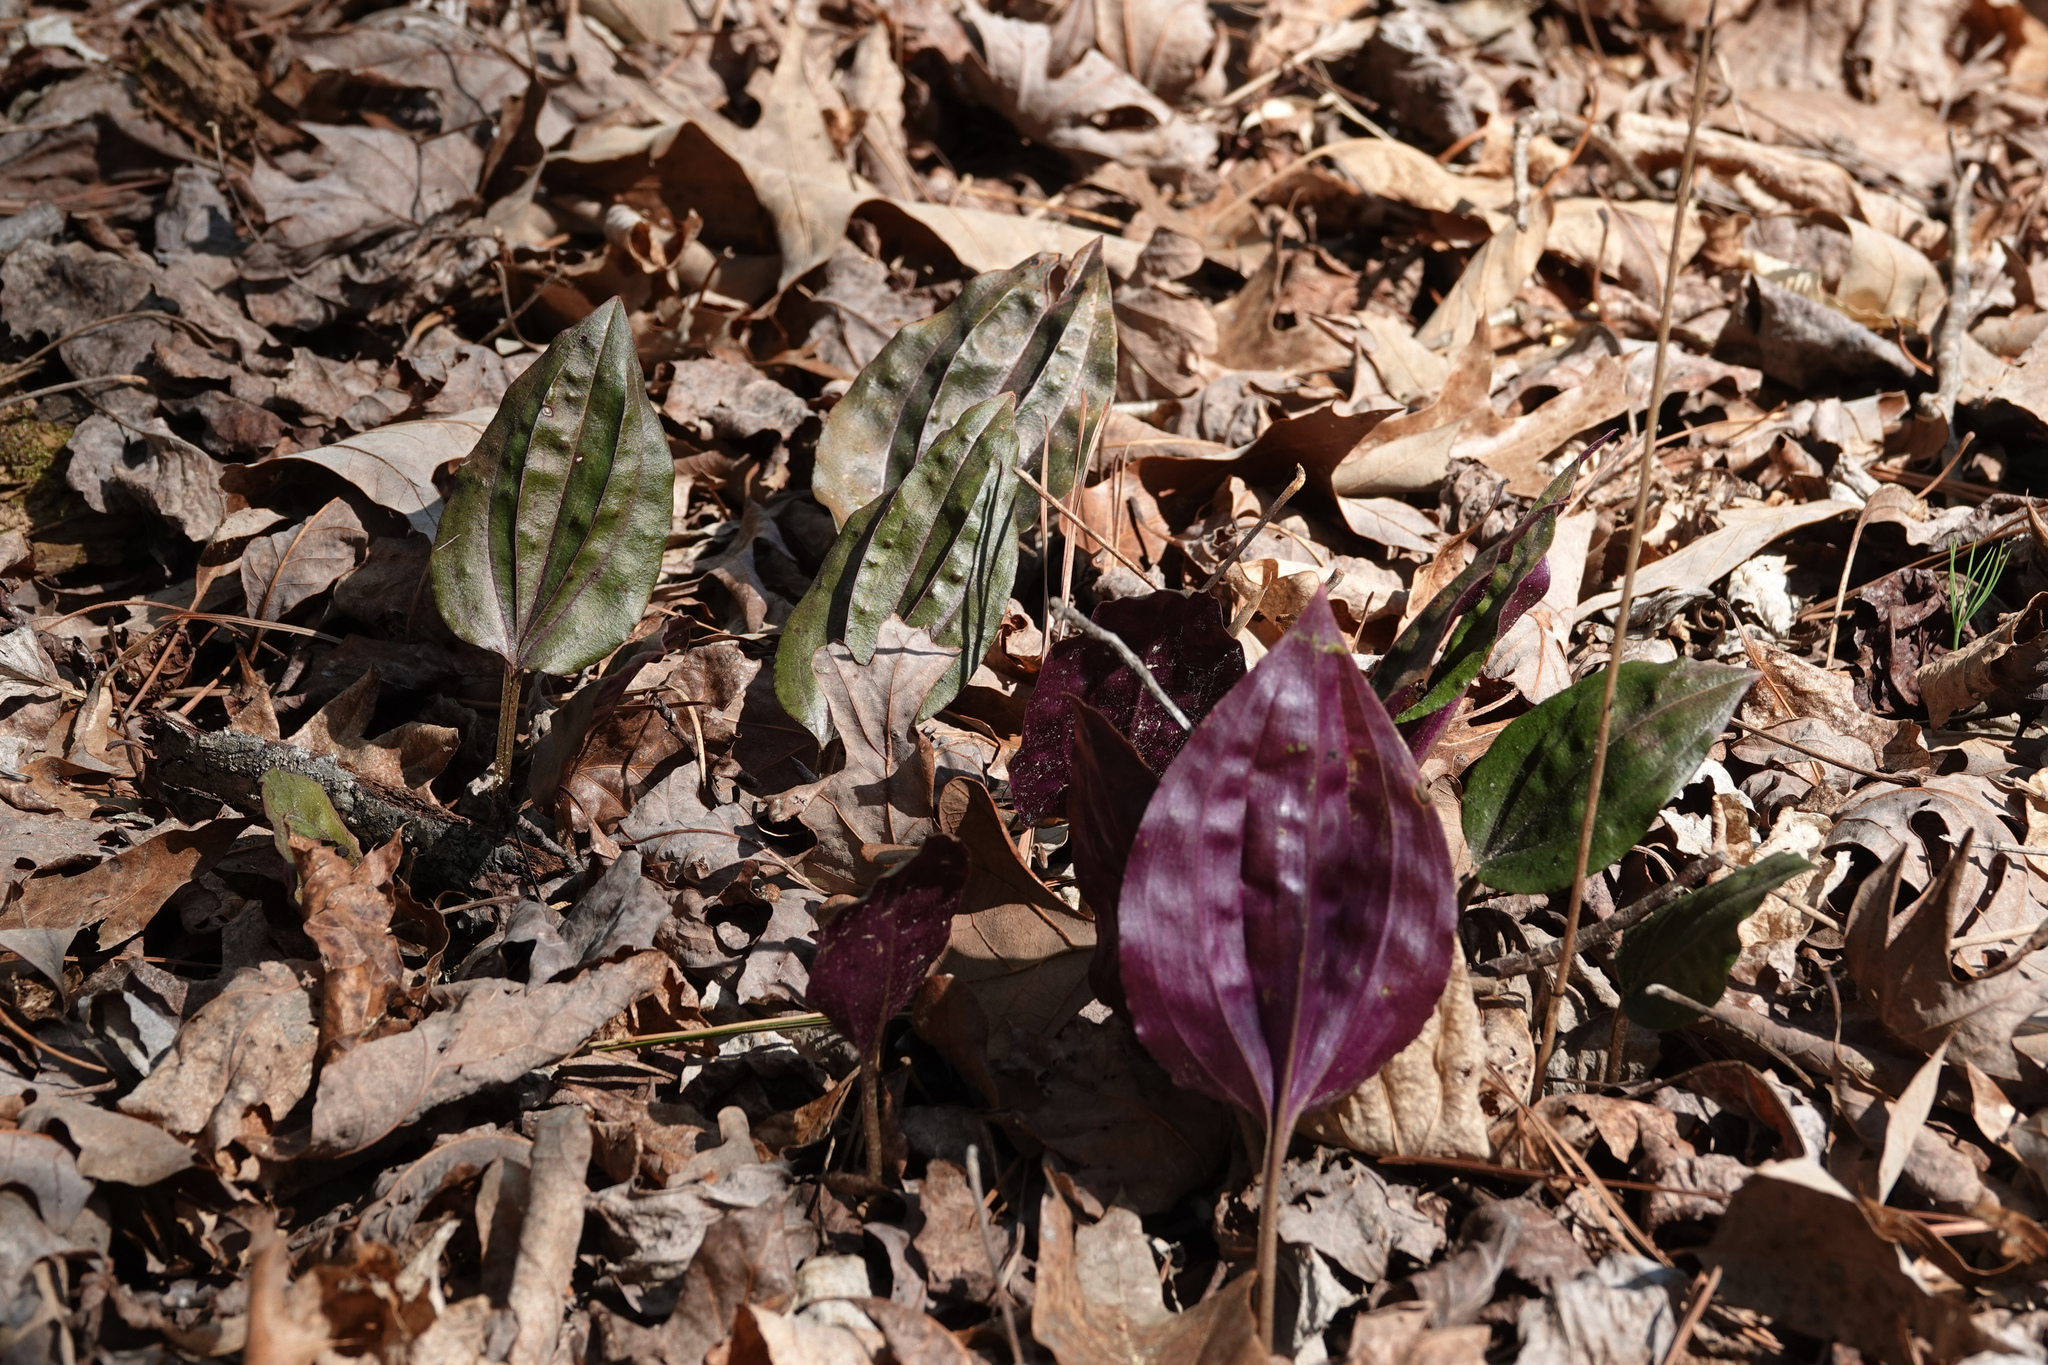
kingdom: Plantae
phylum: Tracheophyta
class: Liliopsida
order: Asparagales
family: Orchidaceae
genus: Tipularia
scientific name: Tipularia discolor
